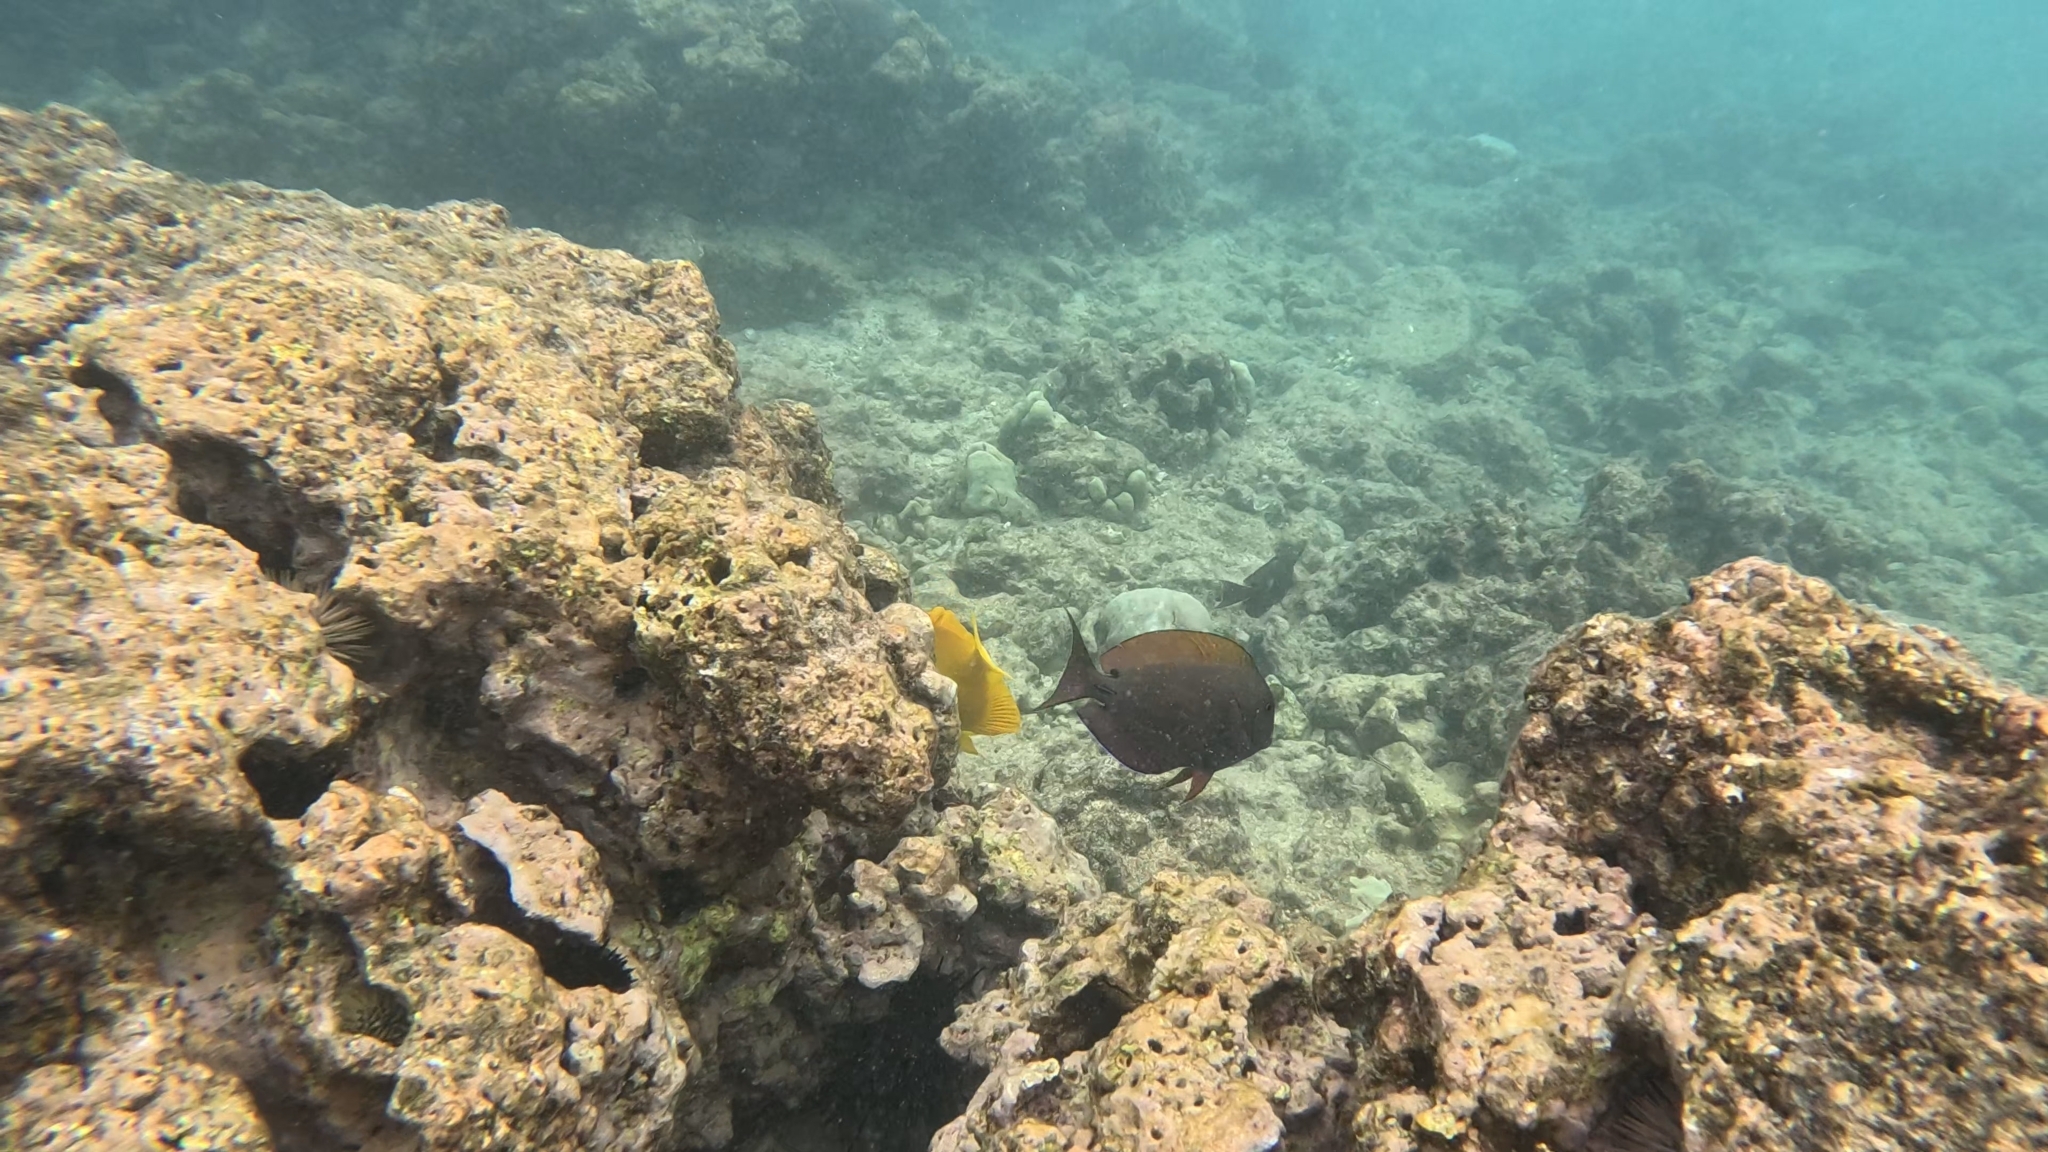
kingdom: Animalia
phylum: Chordata
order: Perciformes
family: Acanthuridae
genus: Acanthurus
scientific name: Acanthurus nigrofuscus
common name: Blackspot surgeonfish
